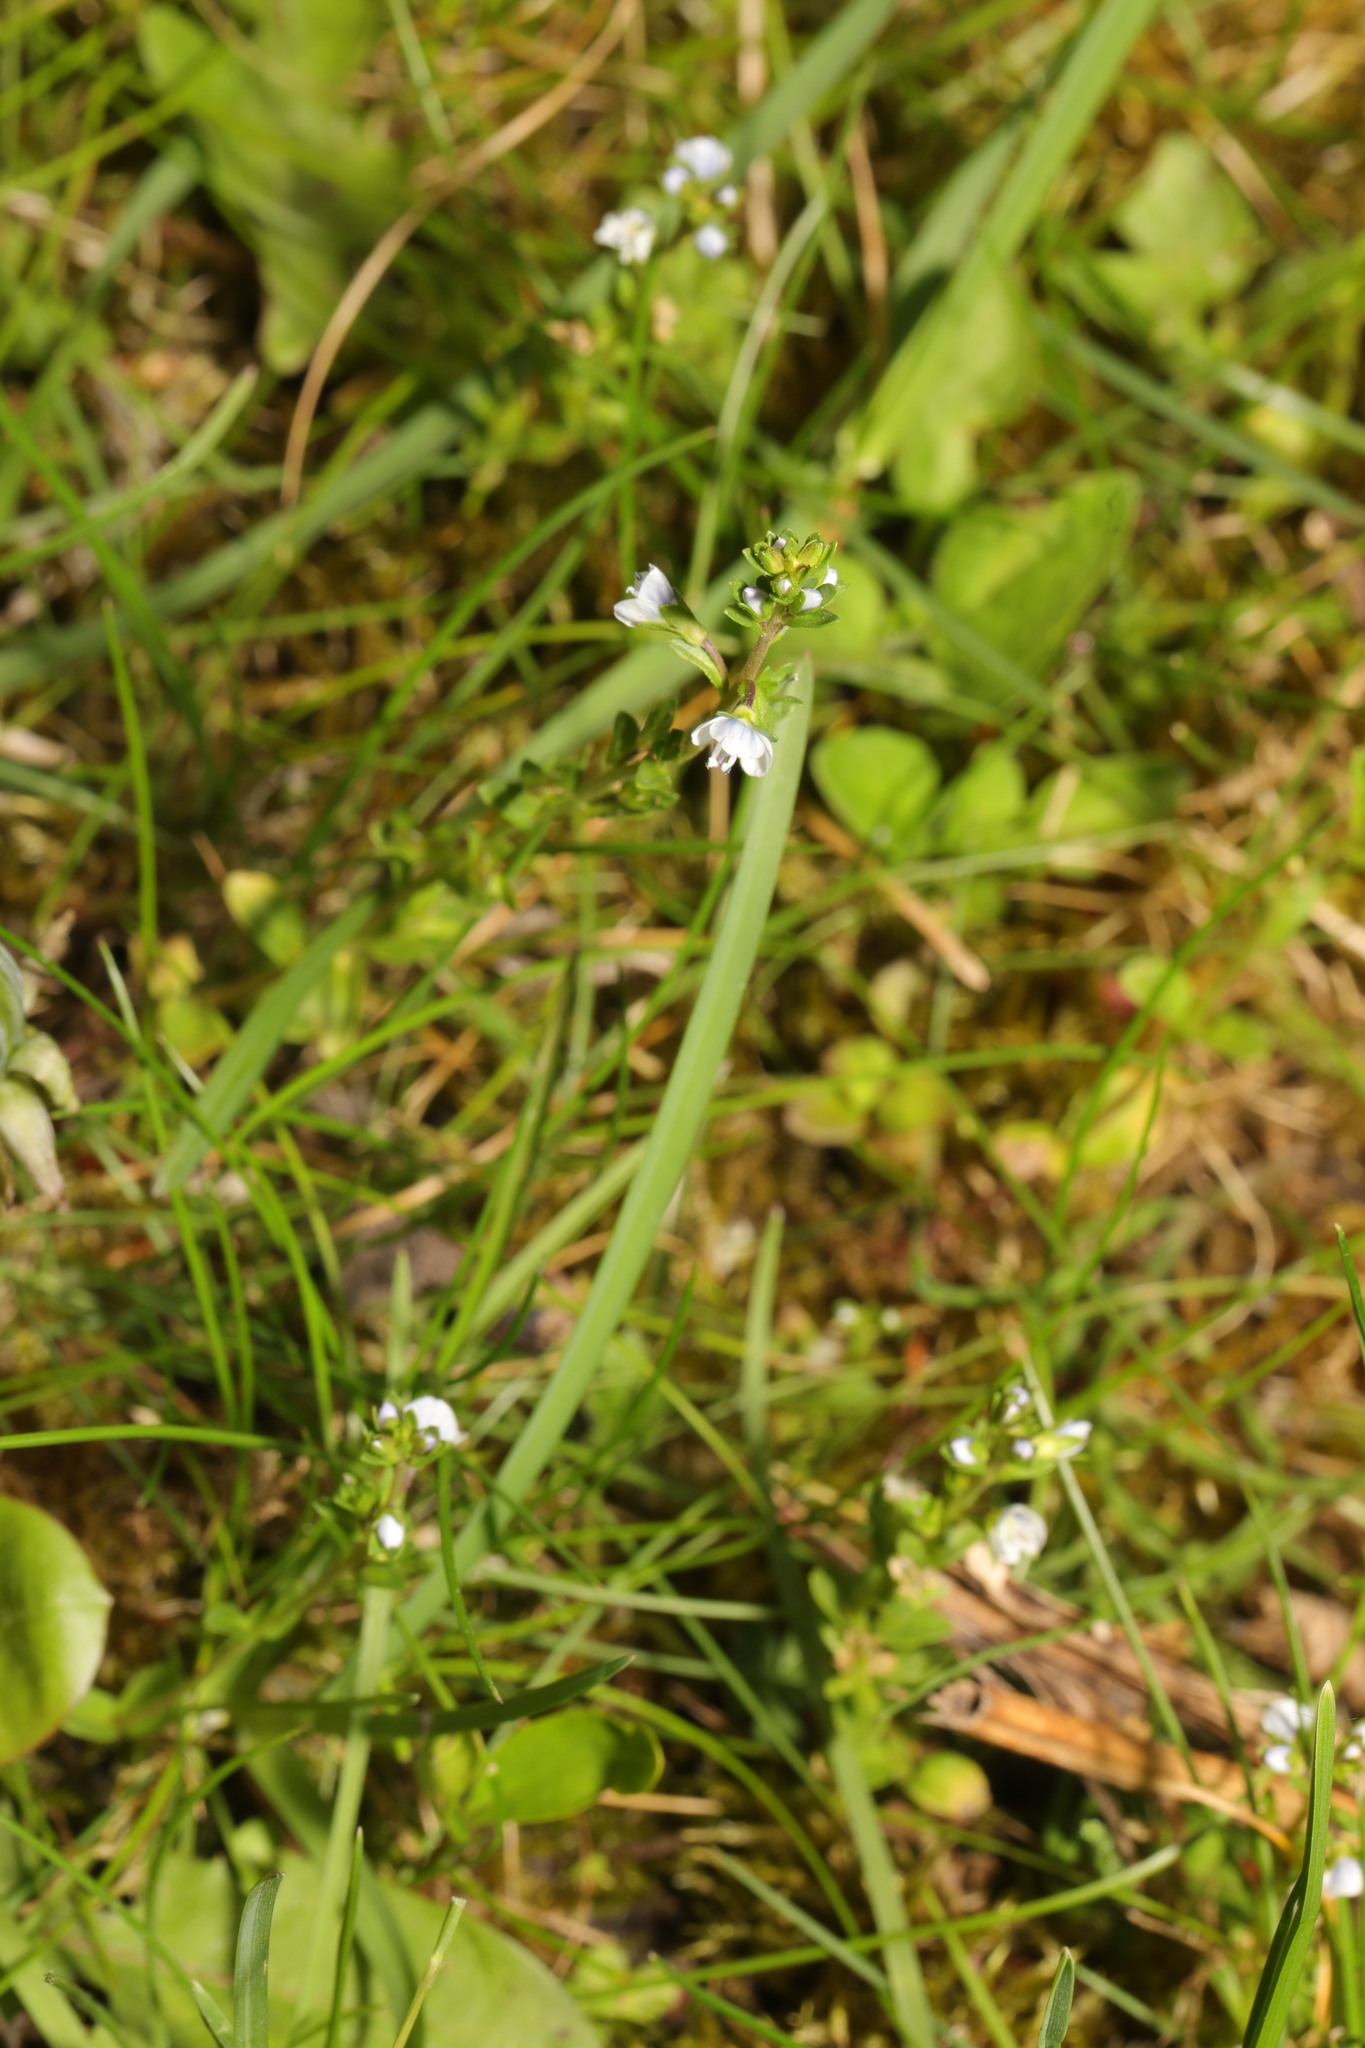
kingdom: Plantae
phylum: Tracheophyta
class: Magnoliopsida
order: Lamiales
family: Plantaginaceae
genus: Veronica
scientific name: Veronica serpyllifolia
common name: Thyme-leaved speedwell
